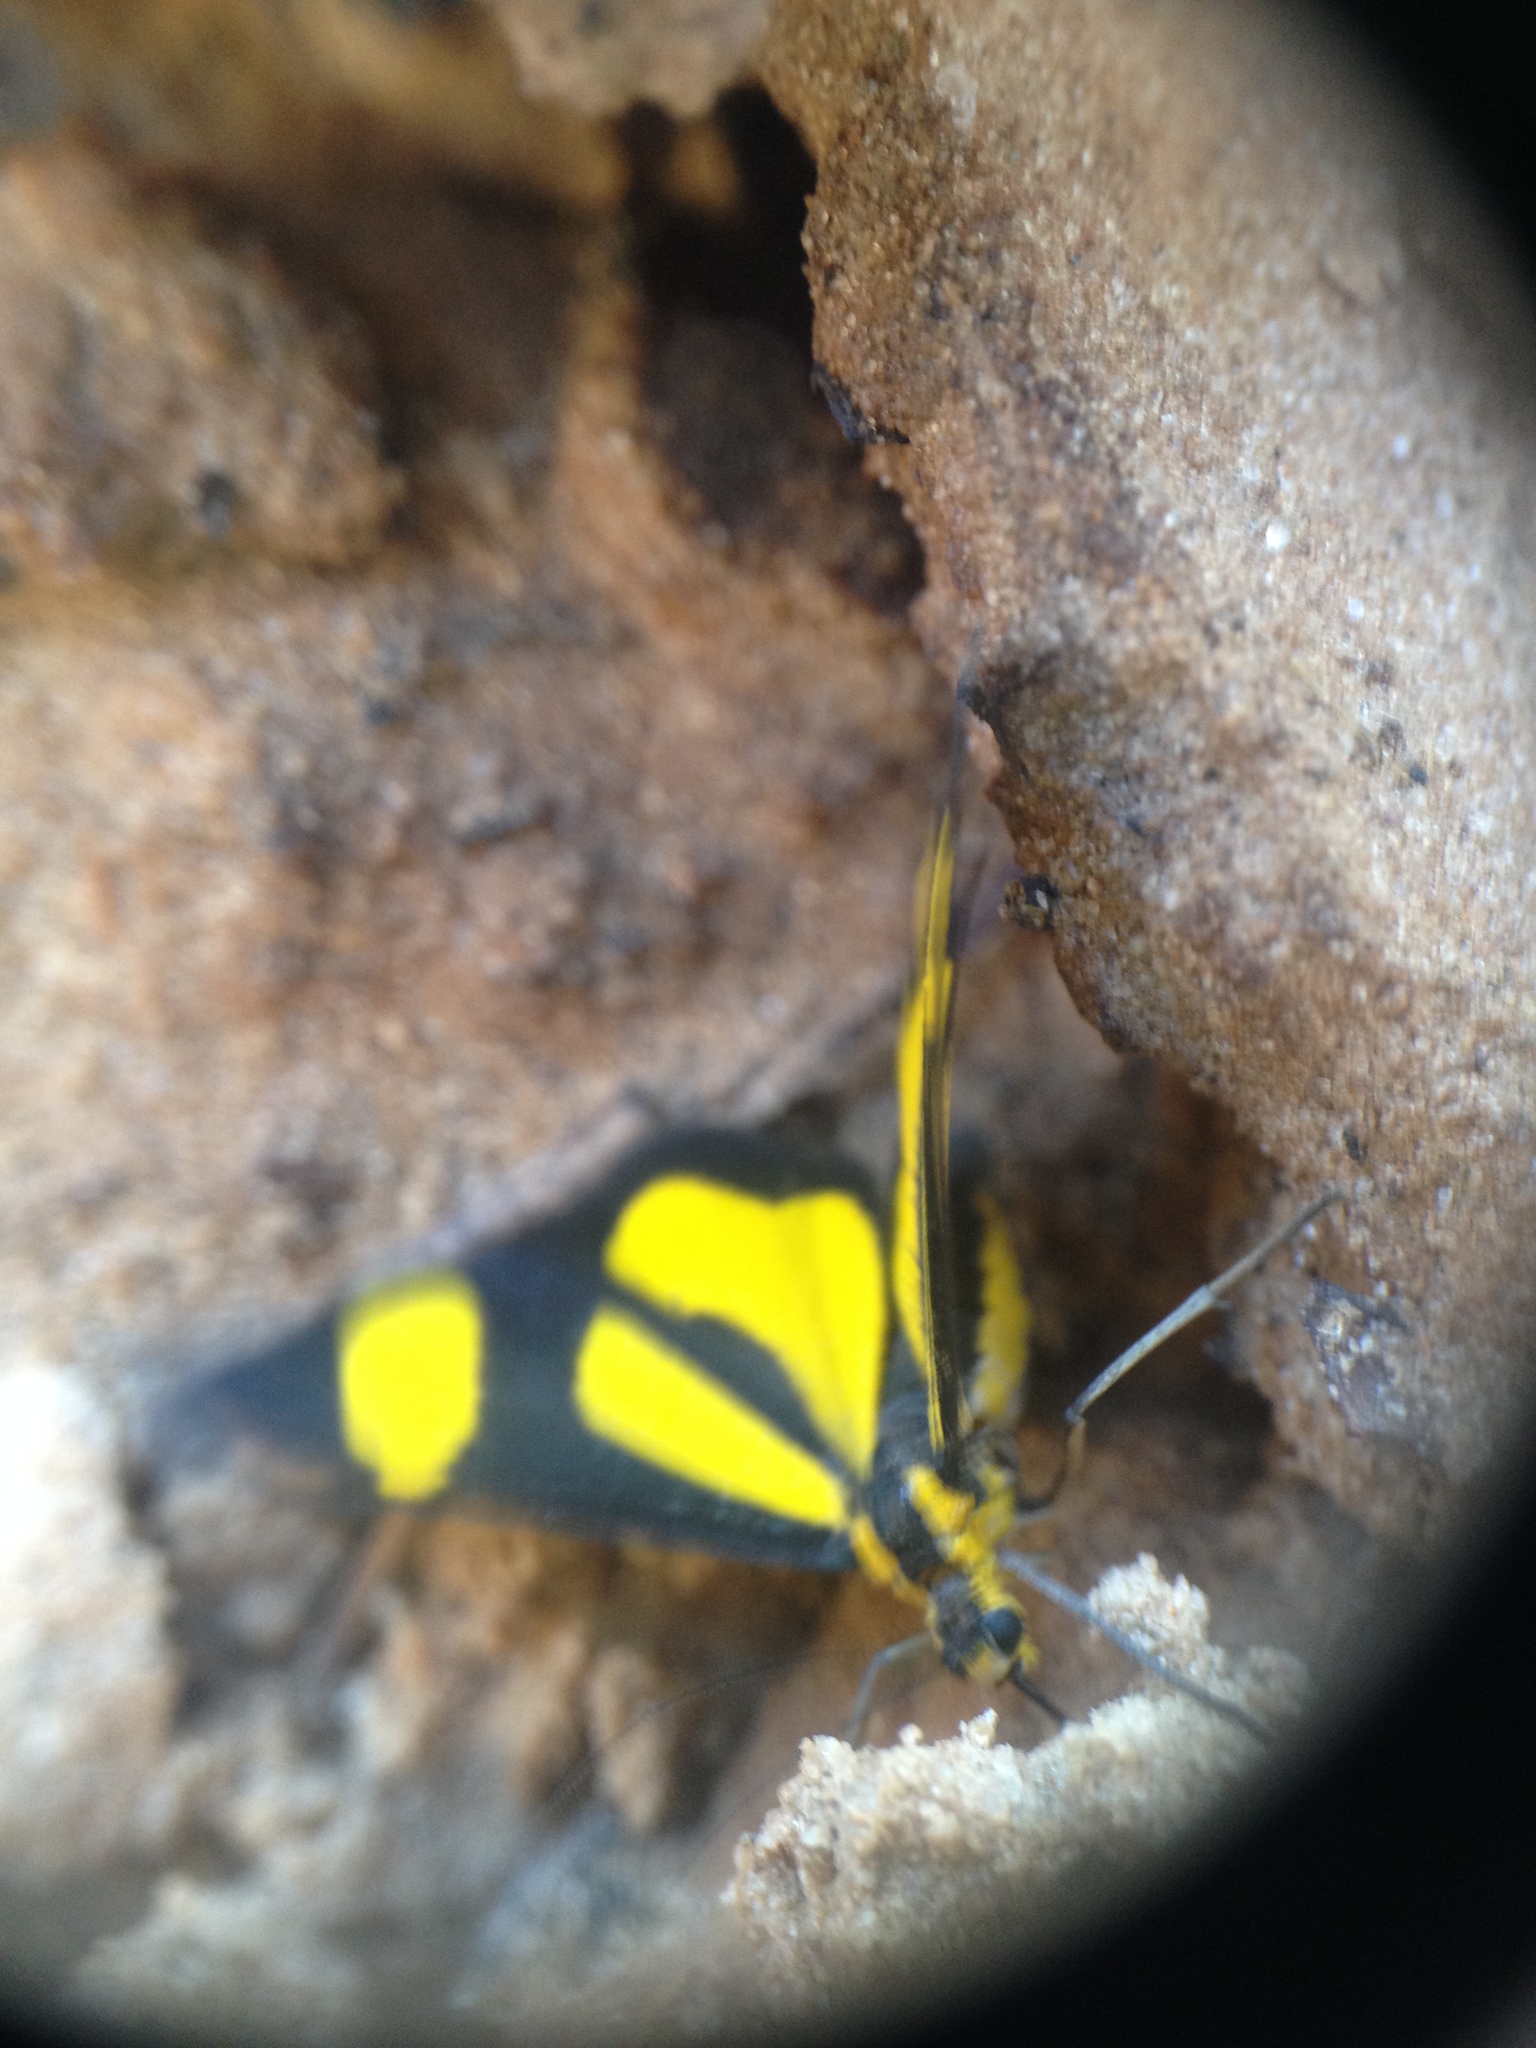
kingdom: Animalia
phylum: Arthropoda
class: Insecta
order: Lepidoptera
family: Geometridae
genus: Cyllopoda
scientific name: Cyllopoda bipuncta
